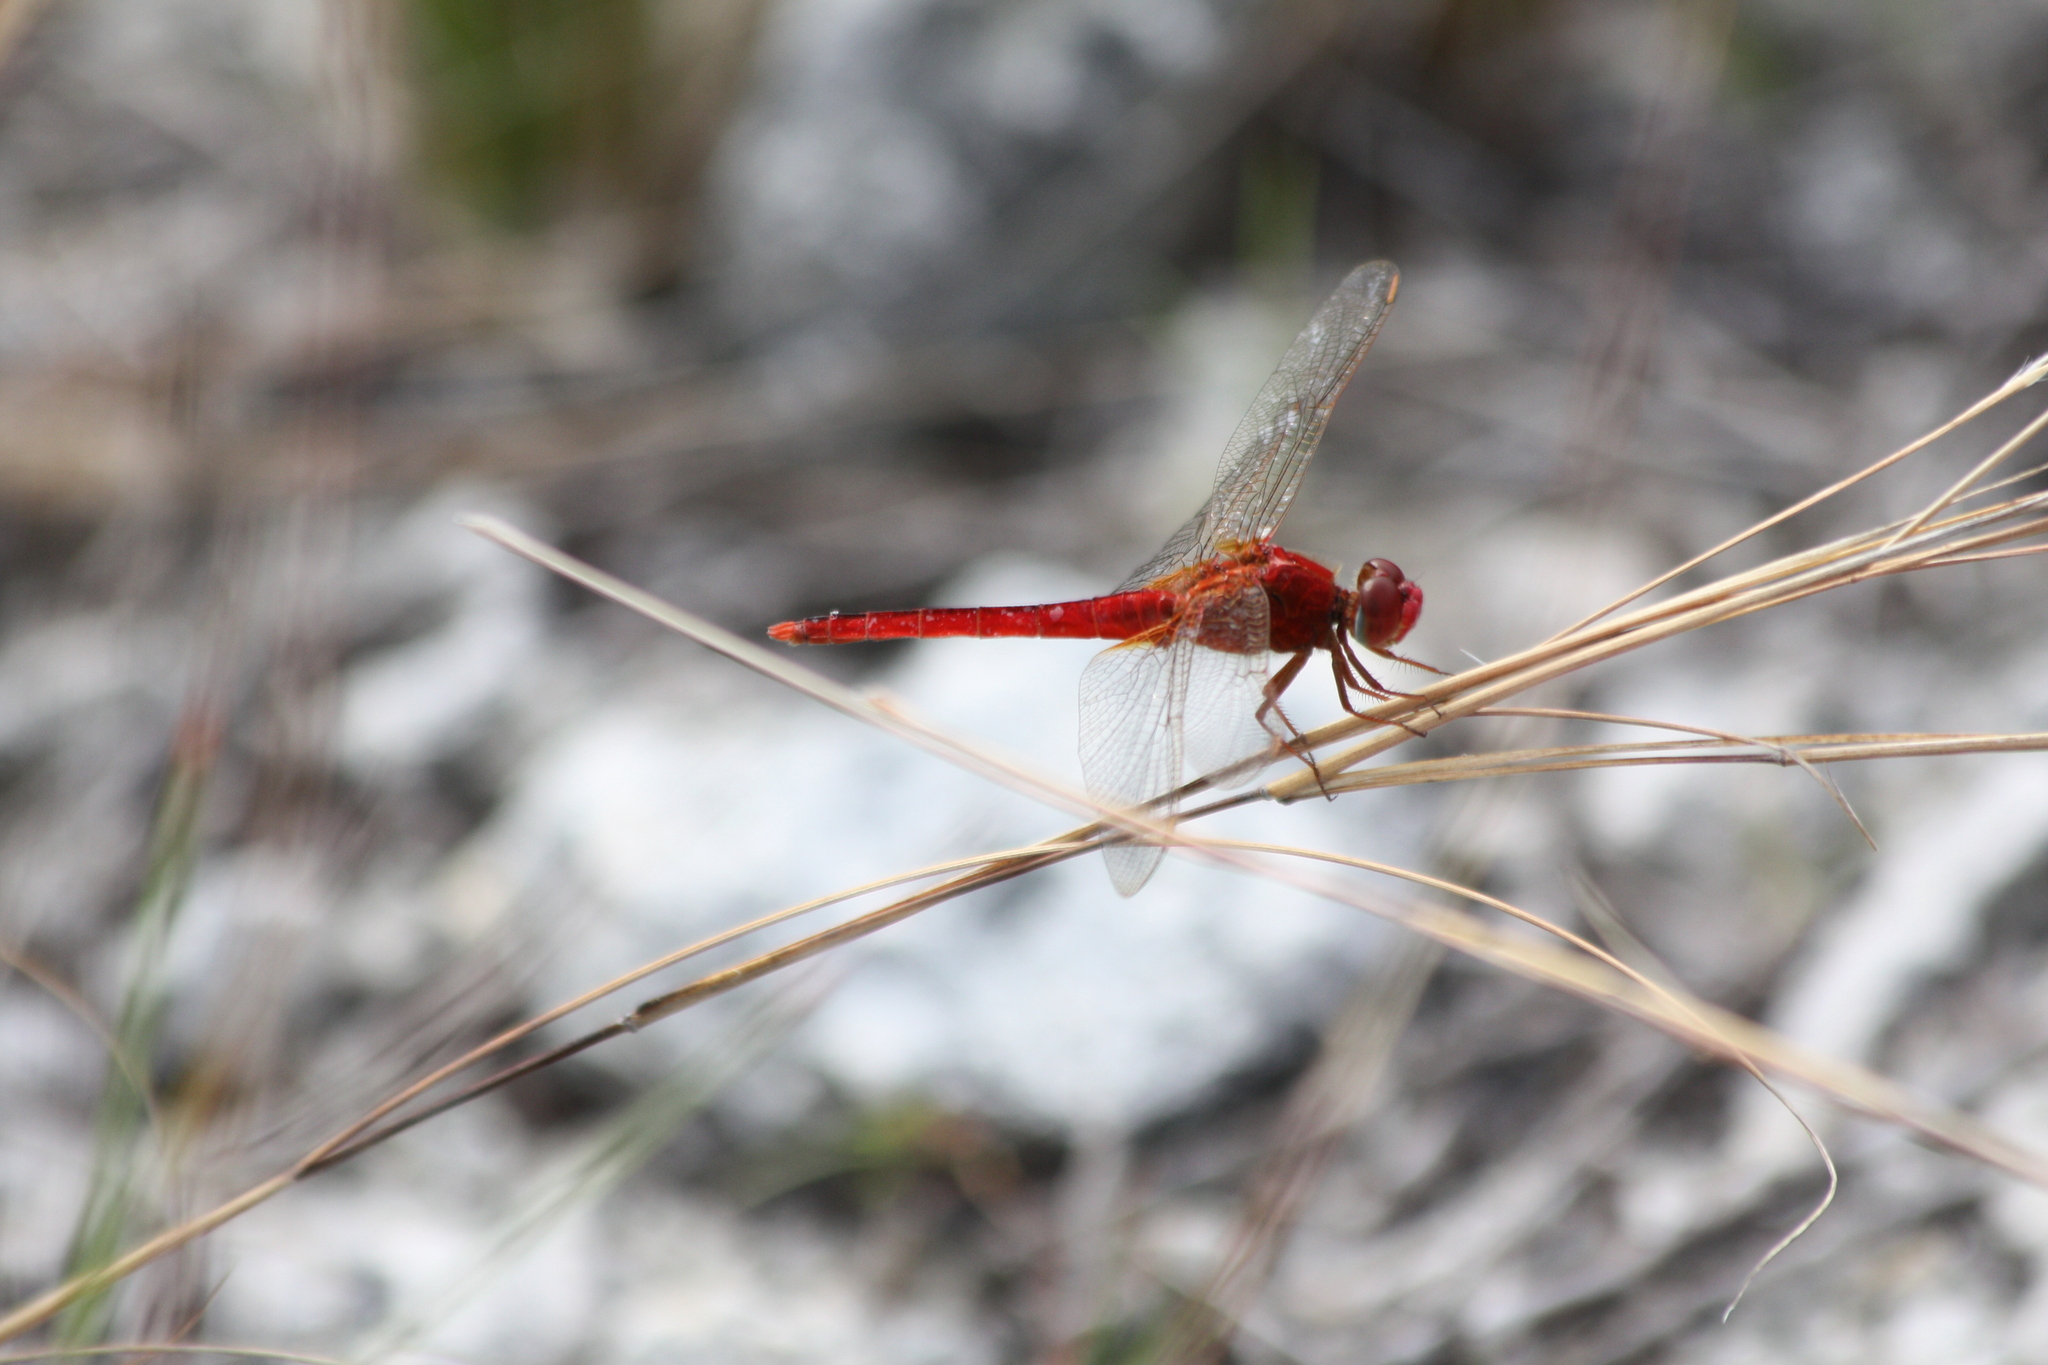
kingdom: Animalia
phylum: Arthropoda
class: Insecta
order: Odonata
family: Libellulidae
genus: Crocothemis
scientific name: Crocothemis servilia
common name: Scarlet skimmer
